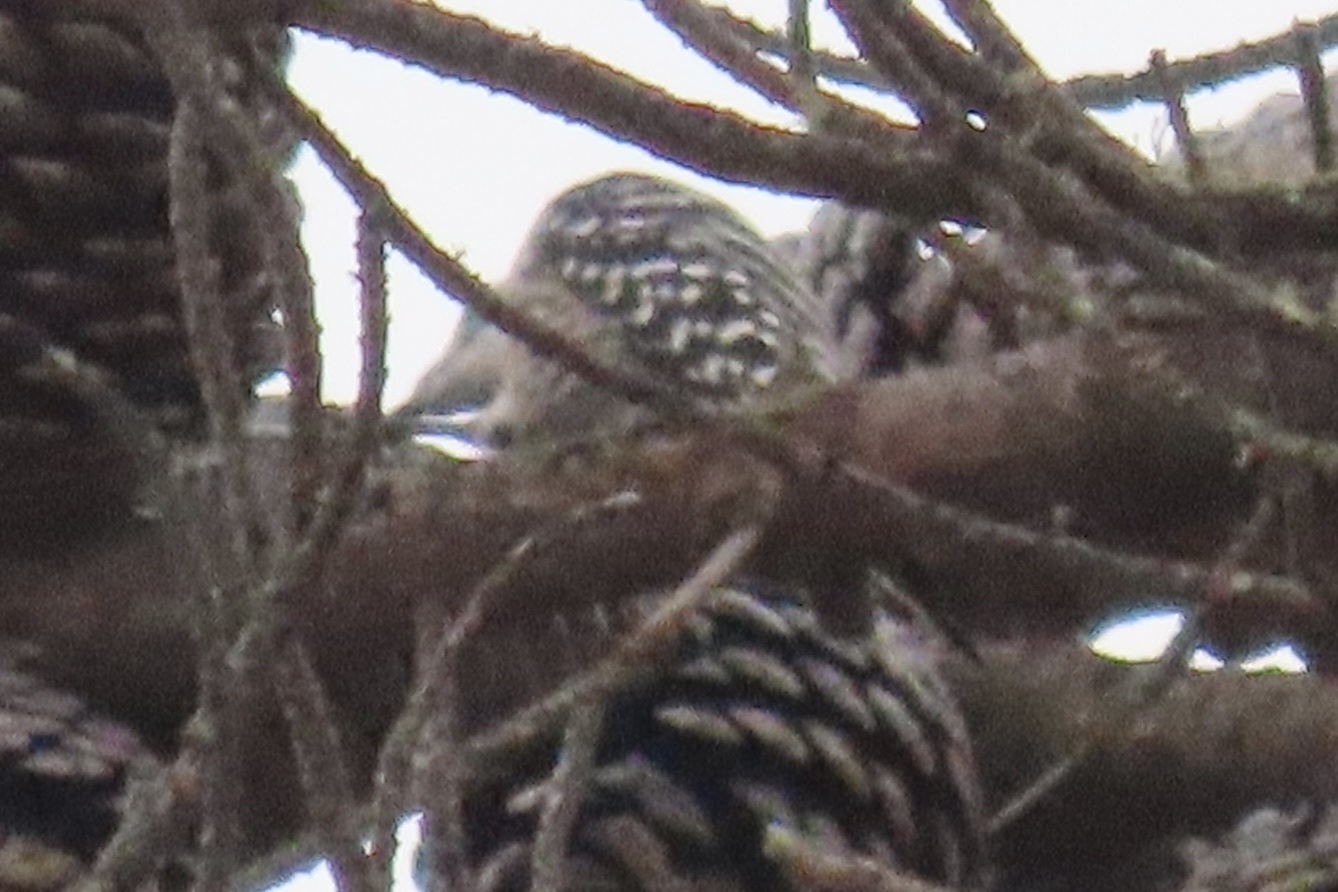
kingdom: Animalia
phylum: Chordata
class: Aves
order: Piciformes
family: Picidae
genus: Dryobates
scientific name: Dryobates nuttallii
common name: Nuttall's woodpecker
